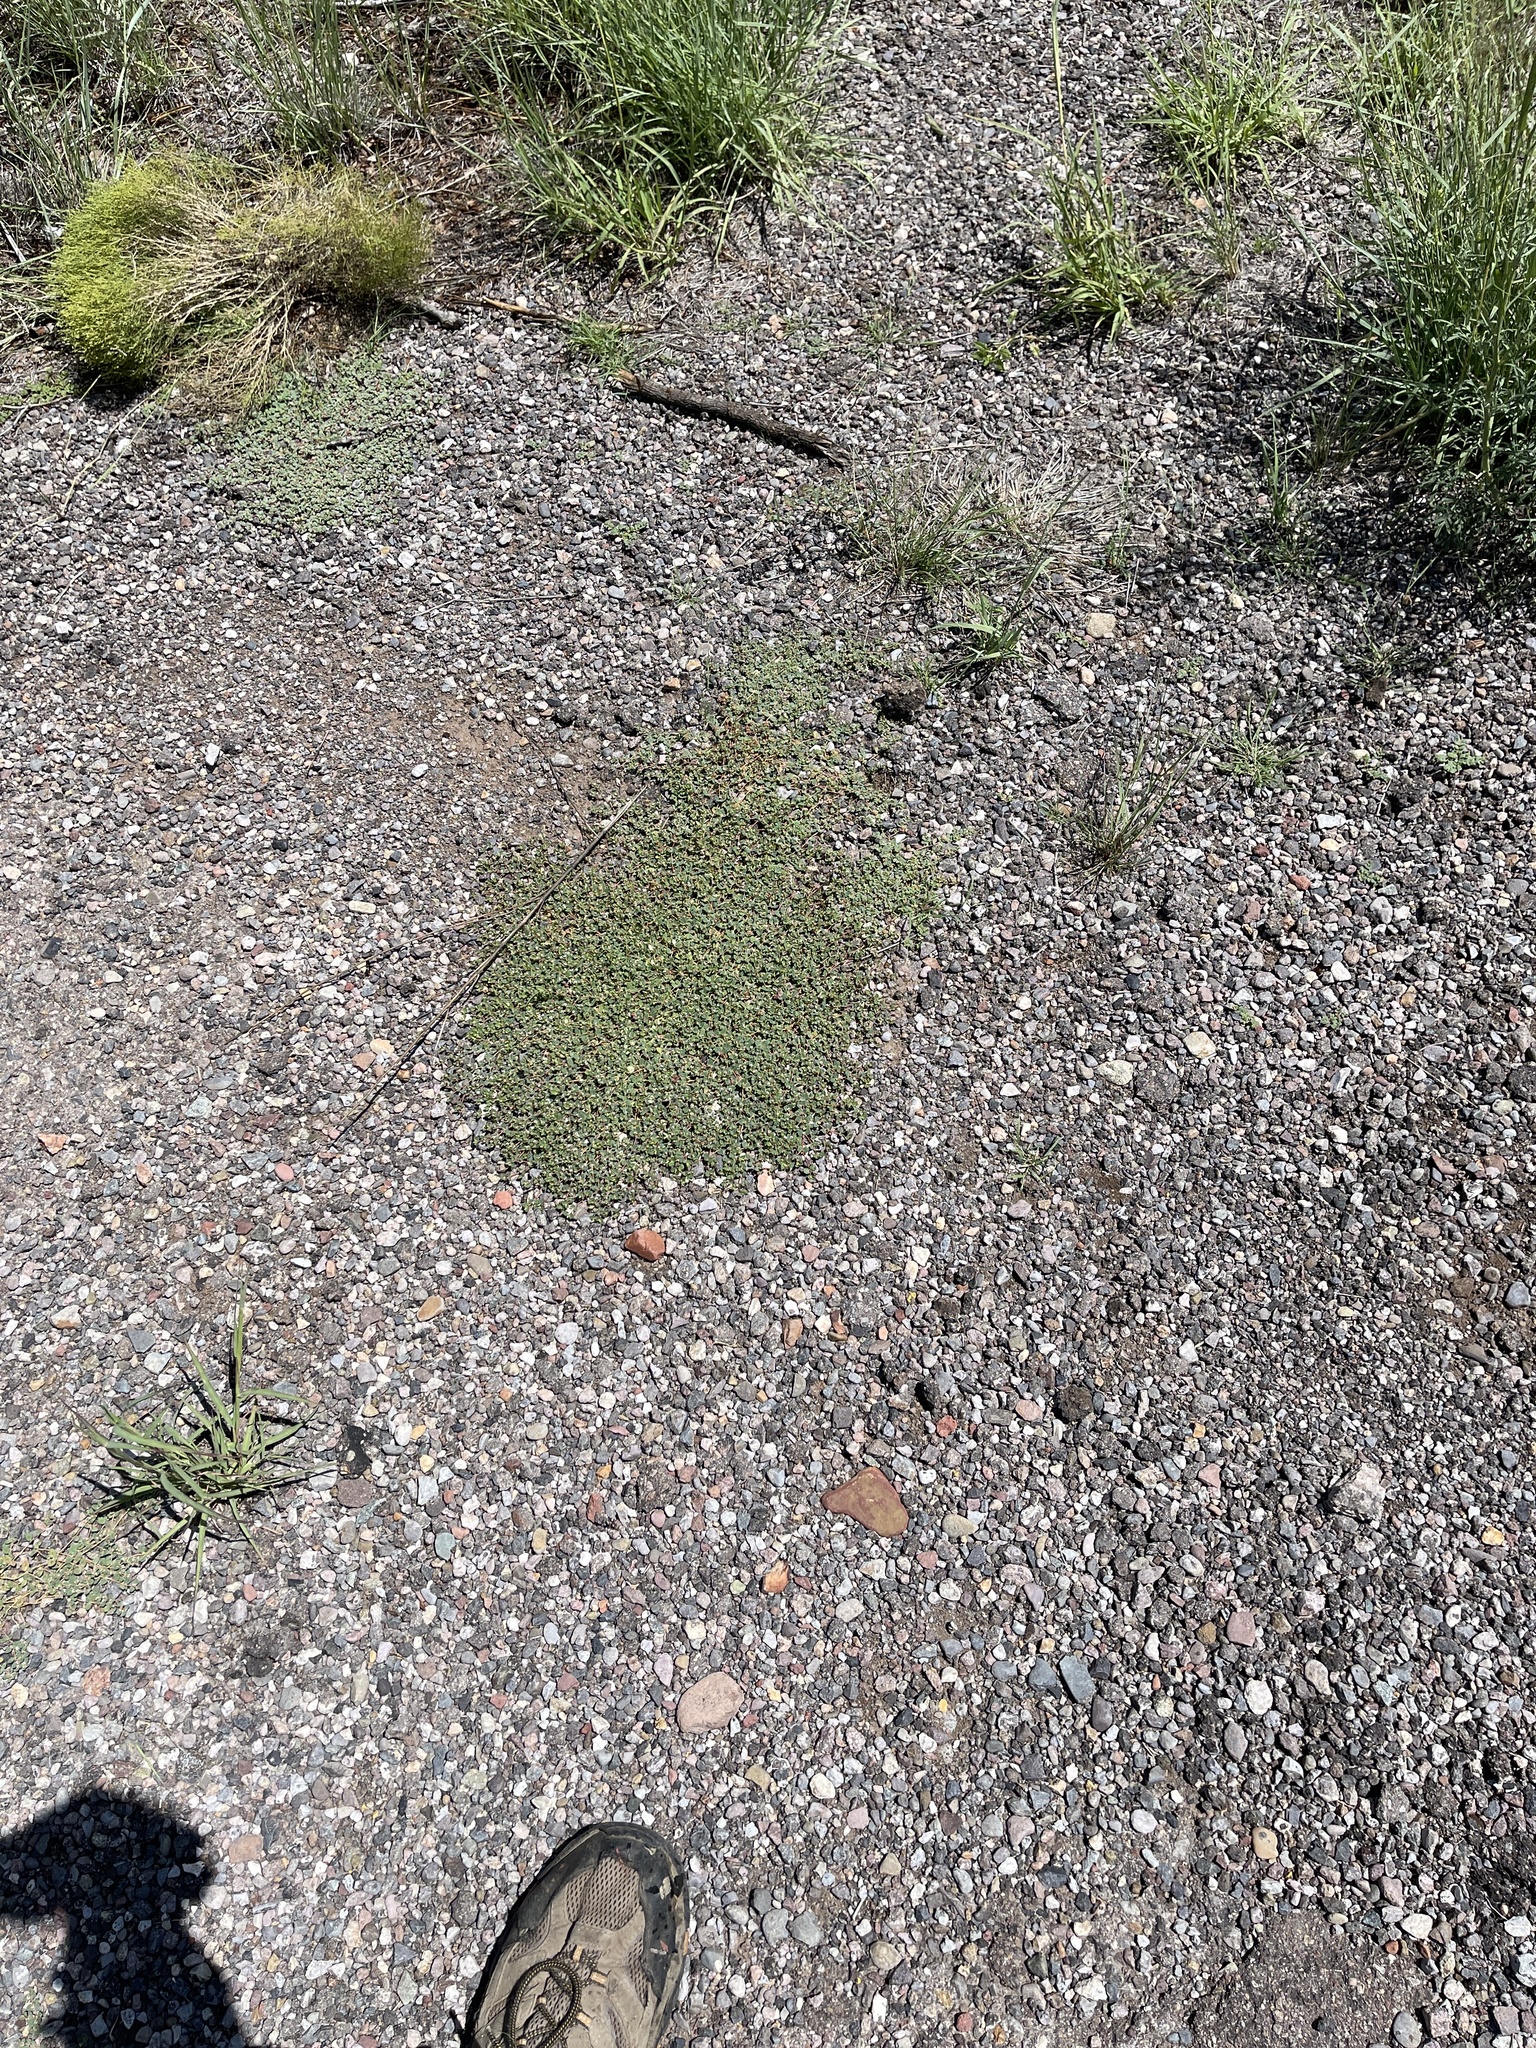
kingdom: Plantae
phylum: Tracheophyta
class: Magnoliopsida
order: Malpighiales
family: Euphorbiaceae
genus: Euphorbia
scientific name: Euphorbia albomarginata
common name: Whitemargin sandmat
